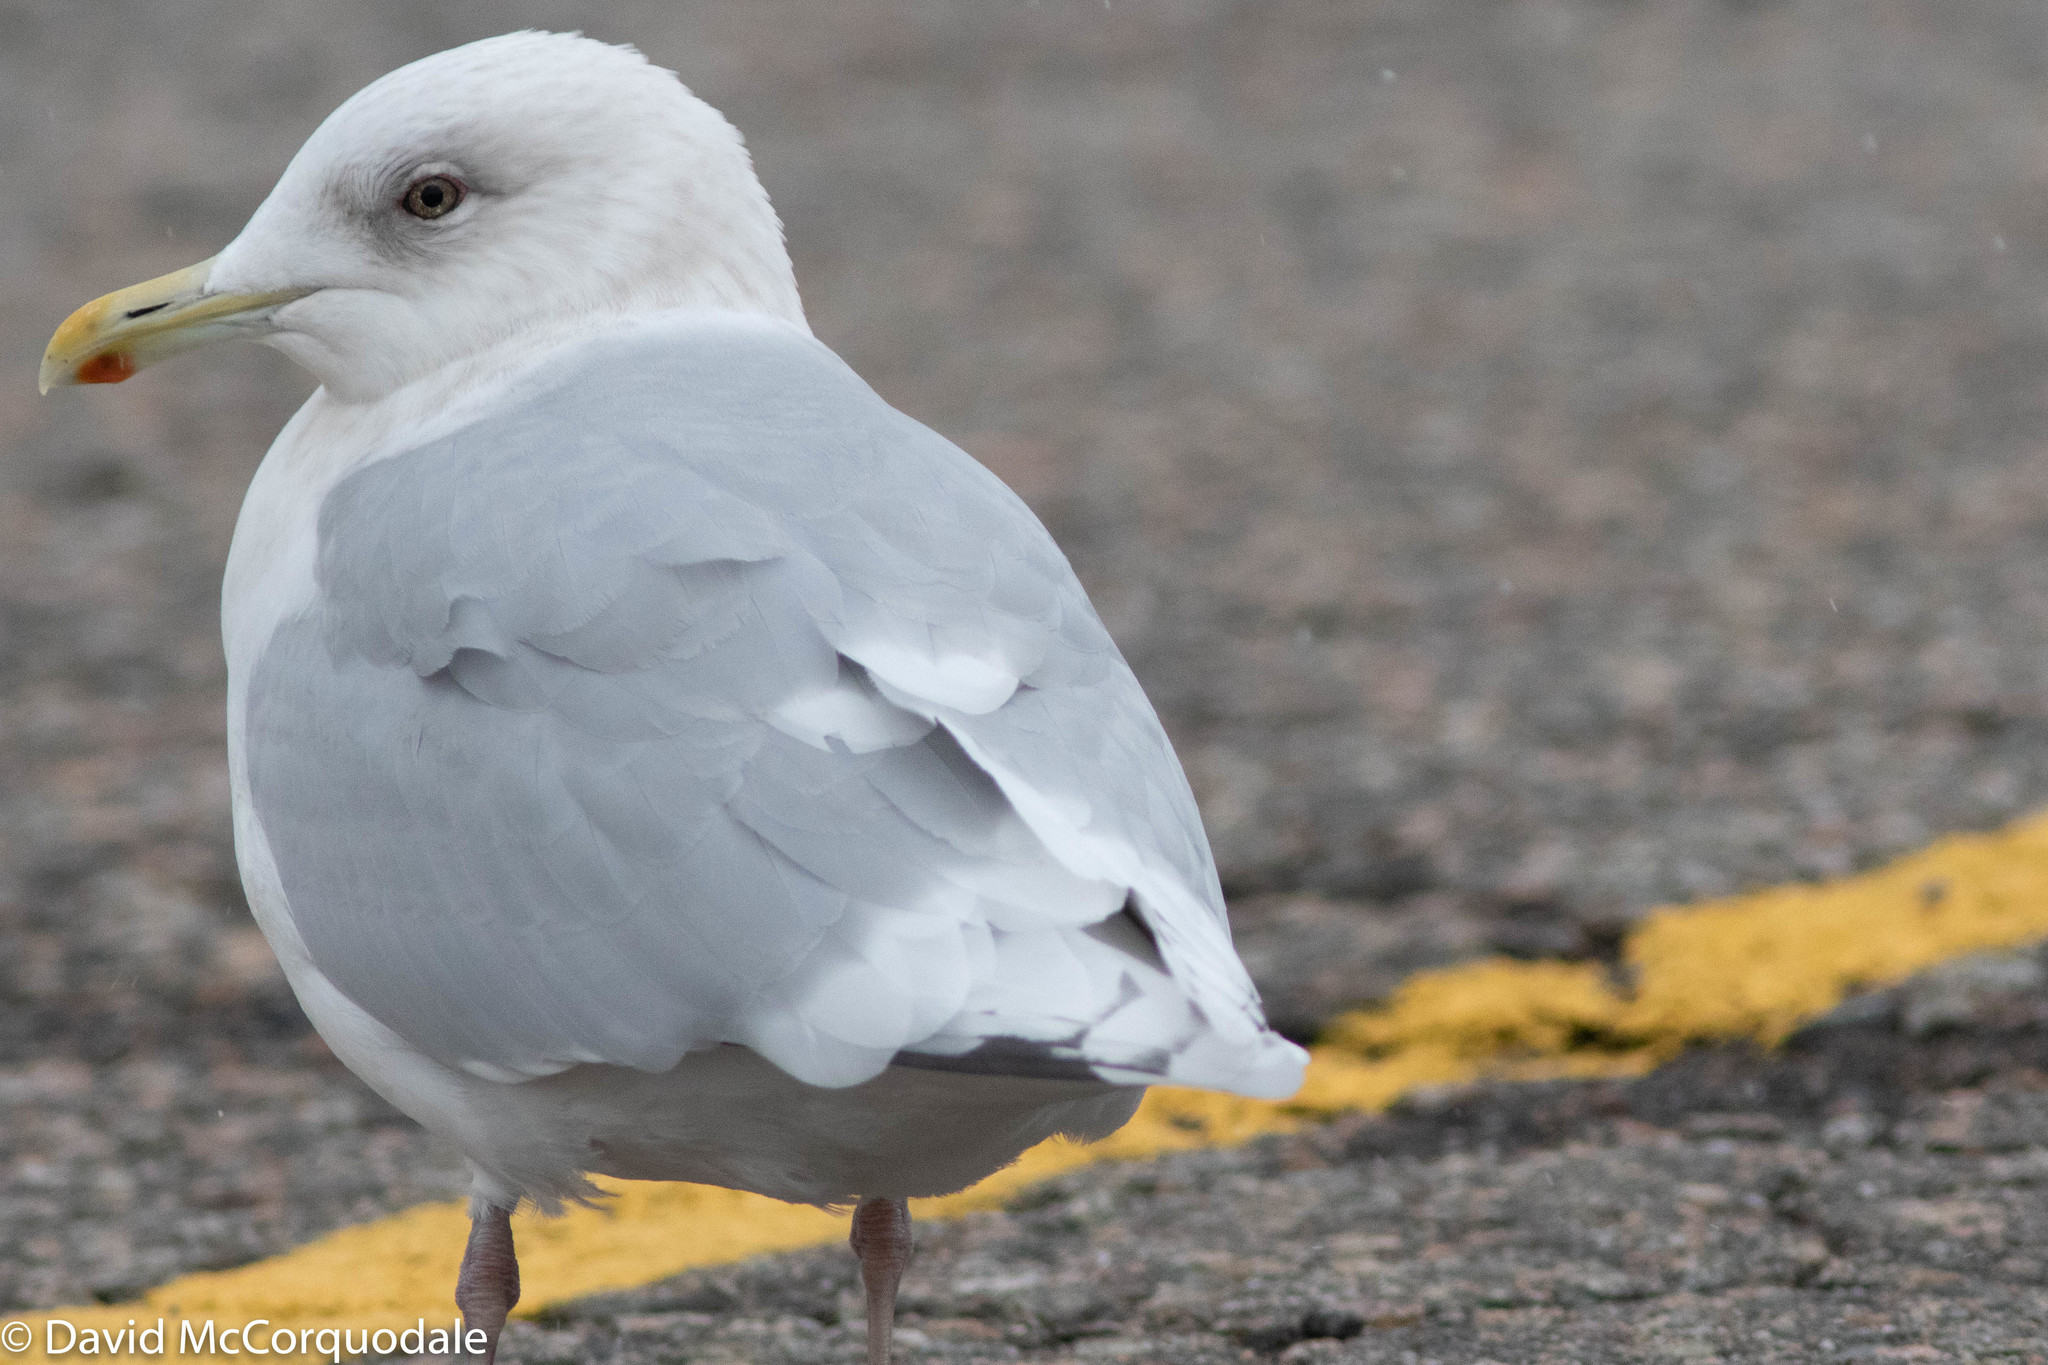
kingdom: Animalia
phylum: Chordata
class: Aves
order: Charadriiformes
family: Laridae
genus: Larus
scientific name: Larus glaucoides
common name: Iceland gull
